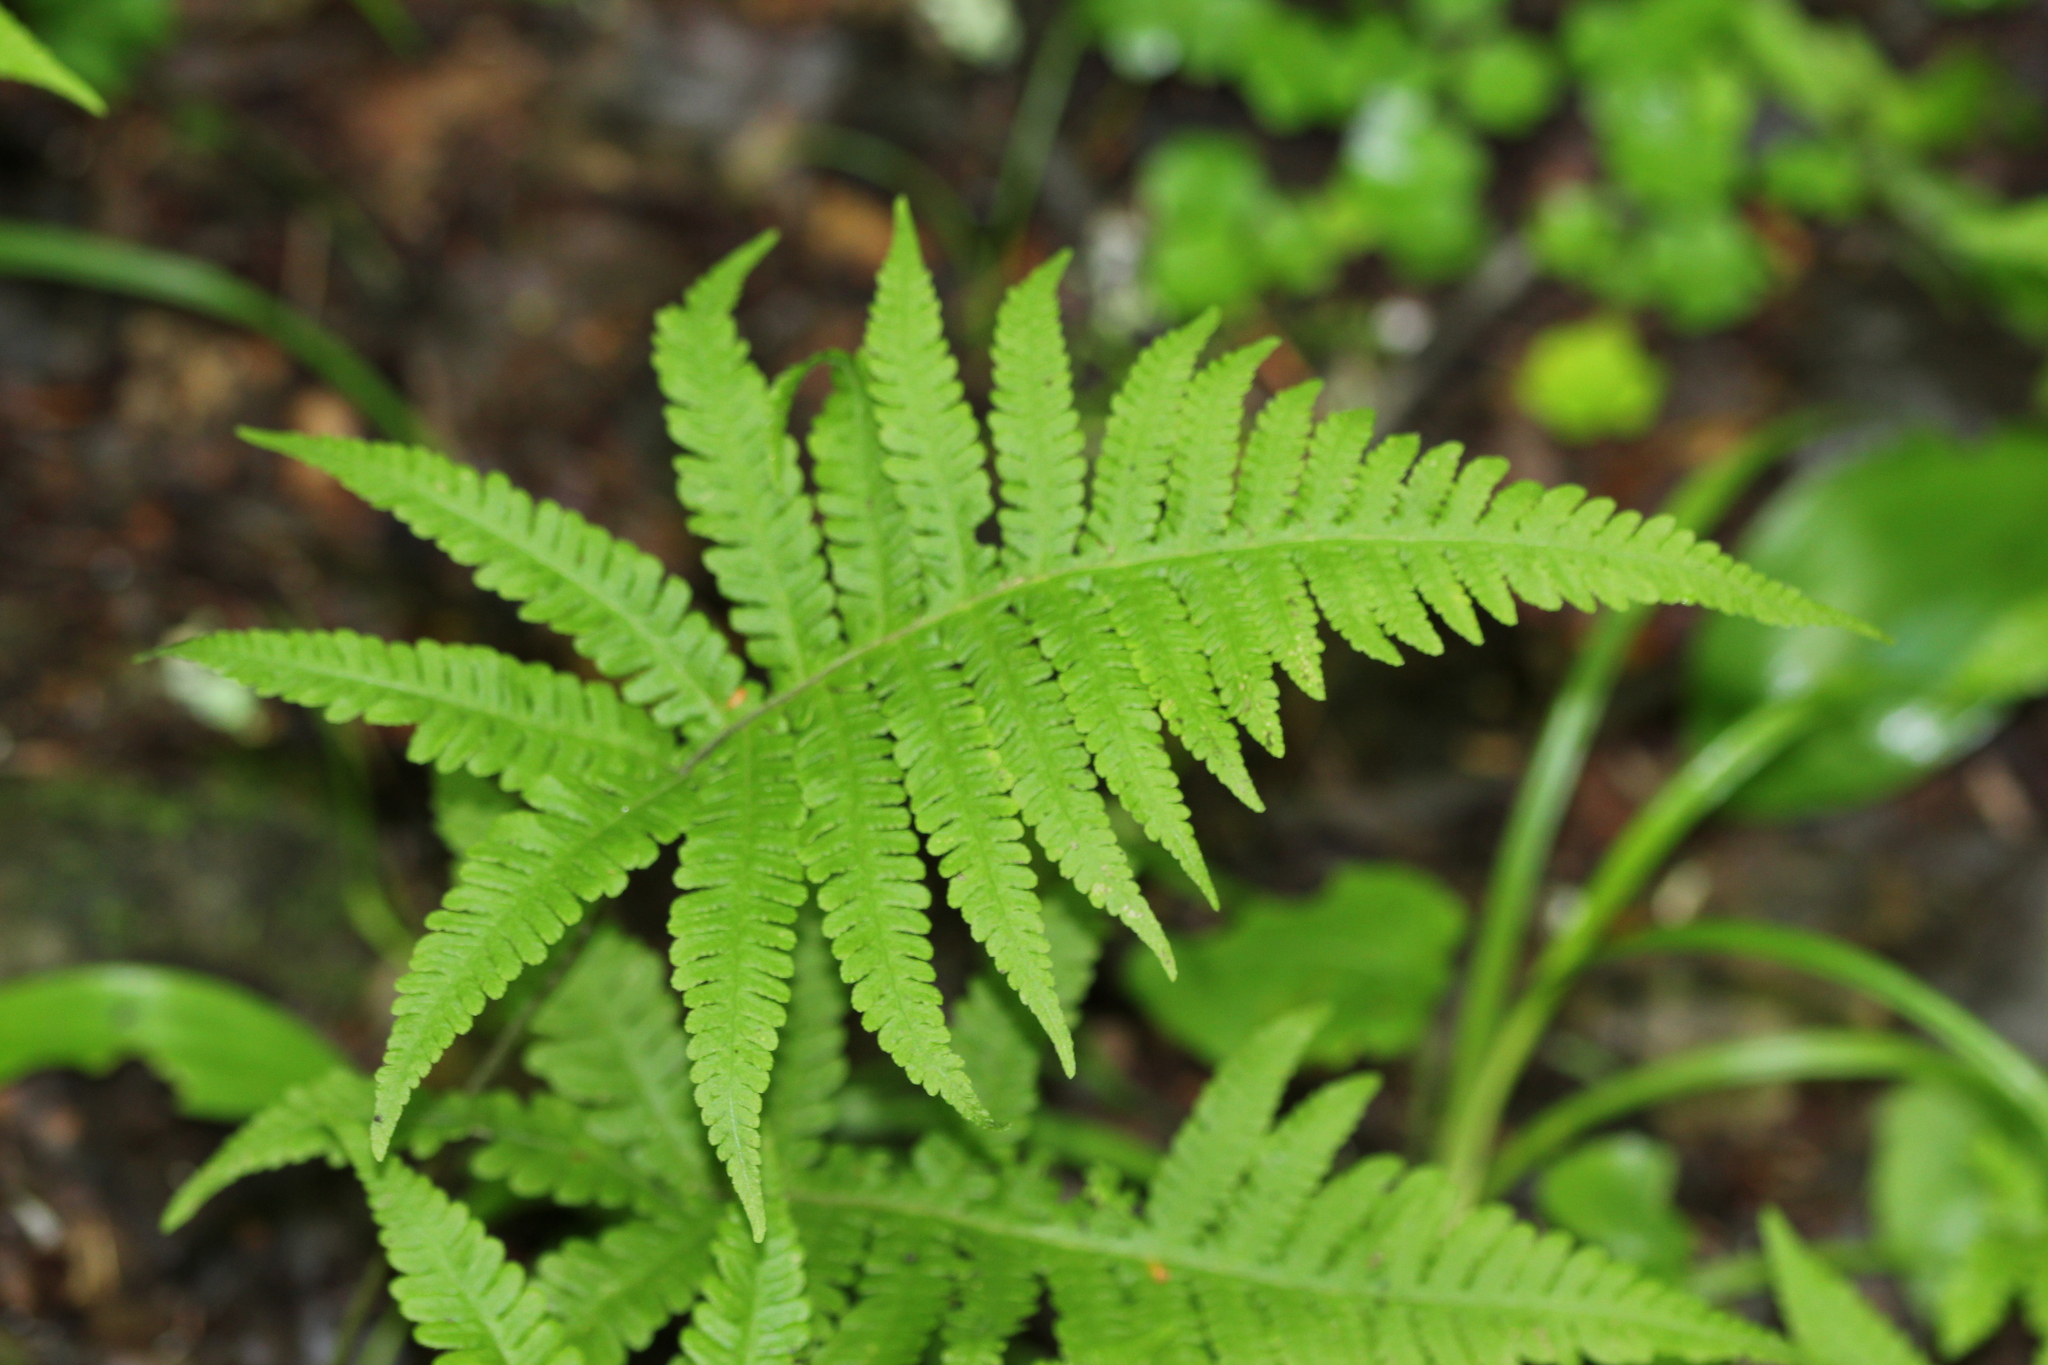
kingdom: Plantae
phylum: Tracheophyta
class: Polypodiopsida
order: Polypodiales
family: Thelypteridaceae
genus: Phegopteris
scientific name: Phegopteris connectilis
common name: Beech fern
